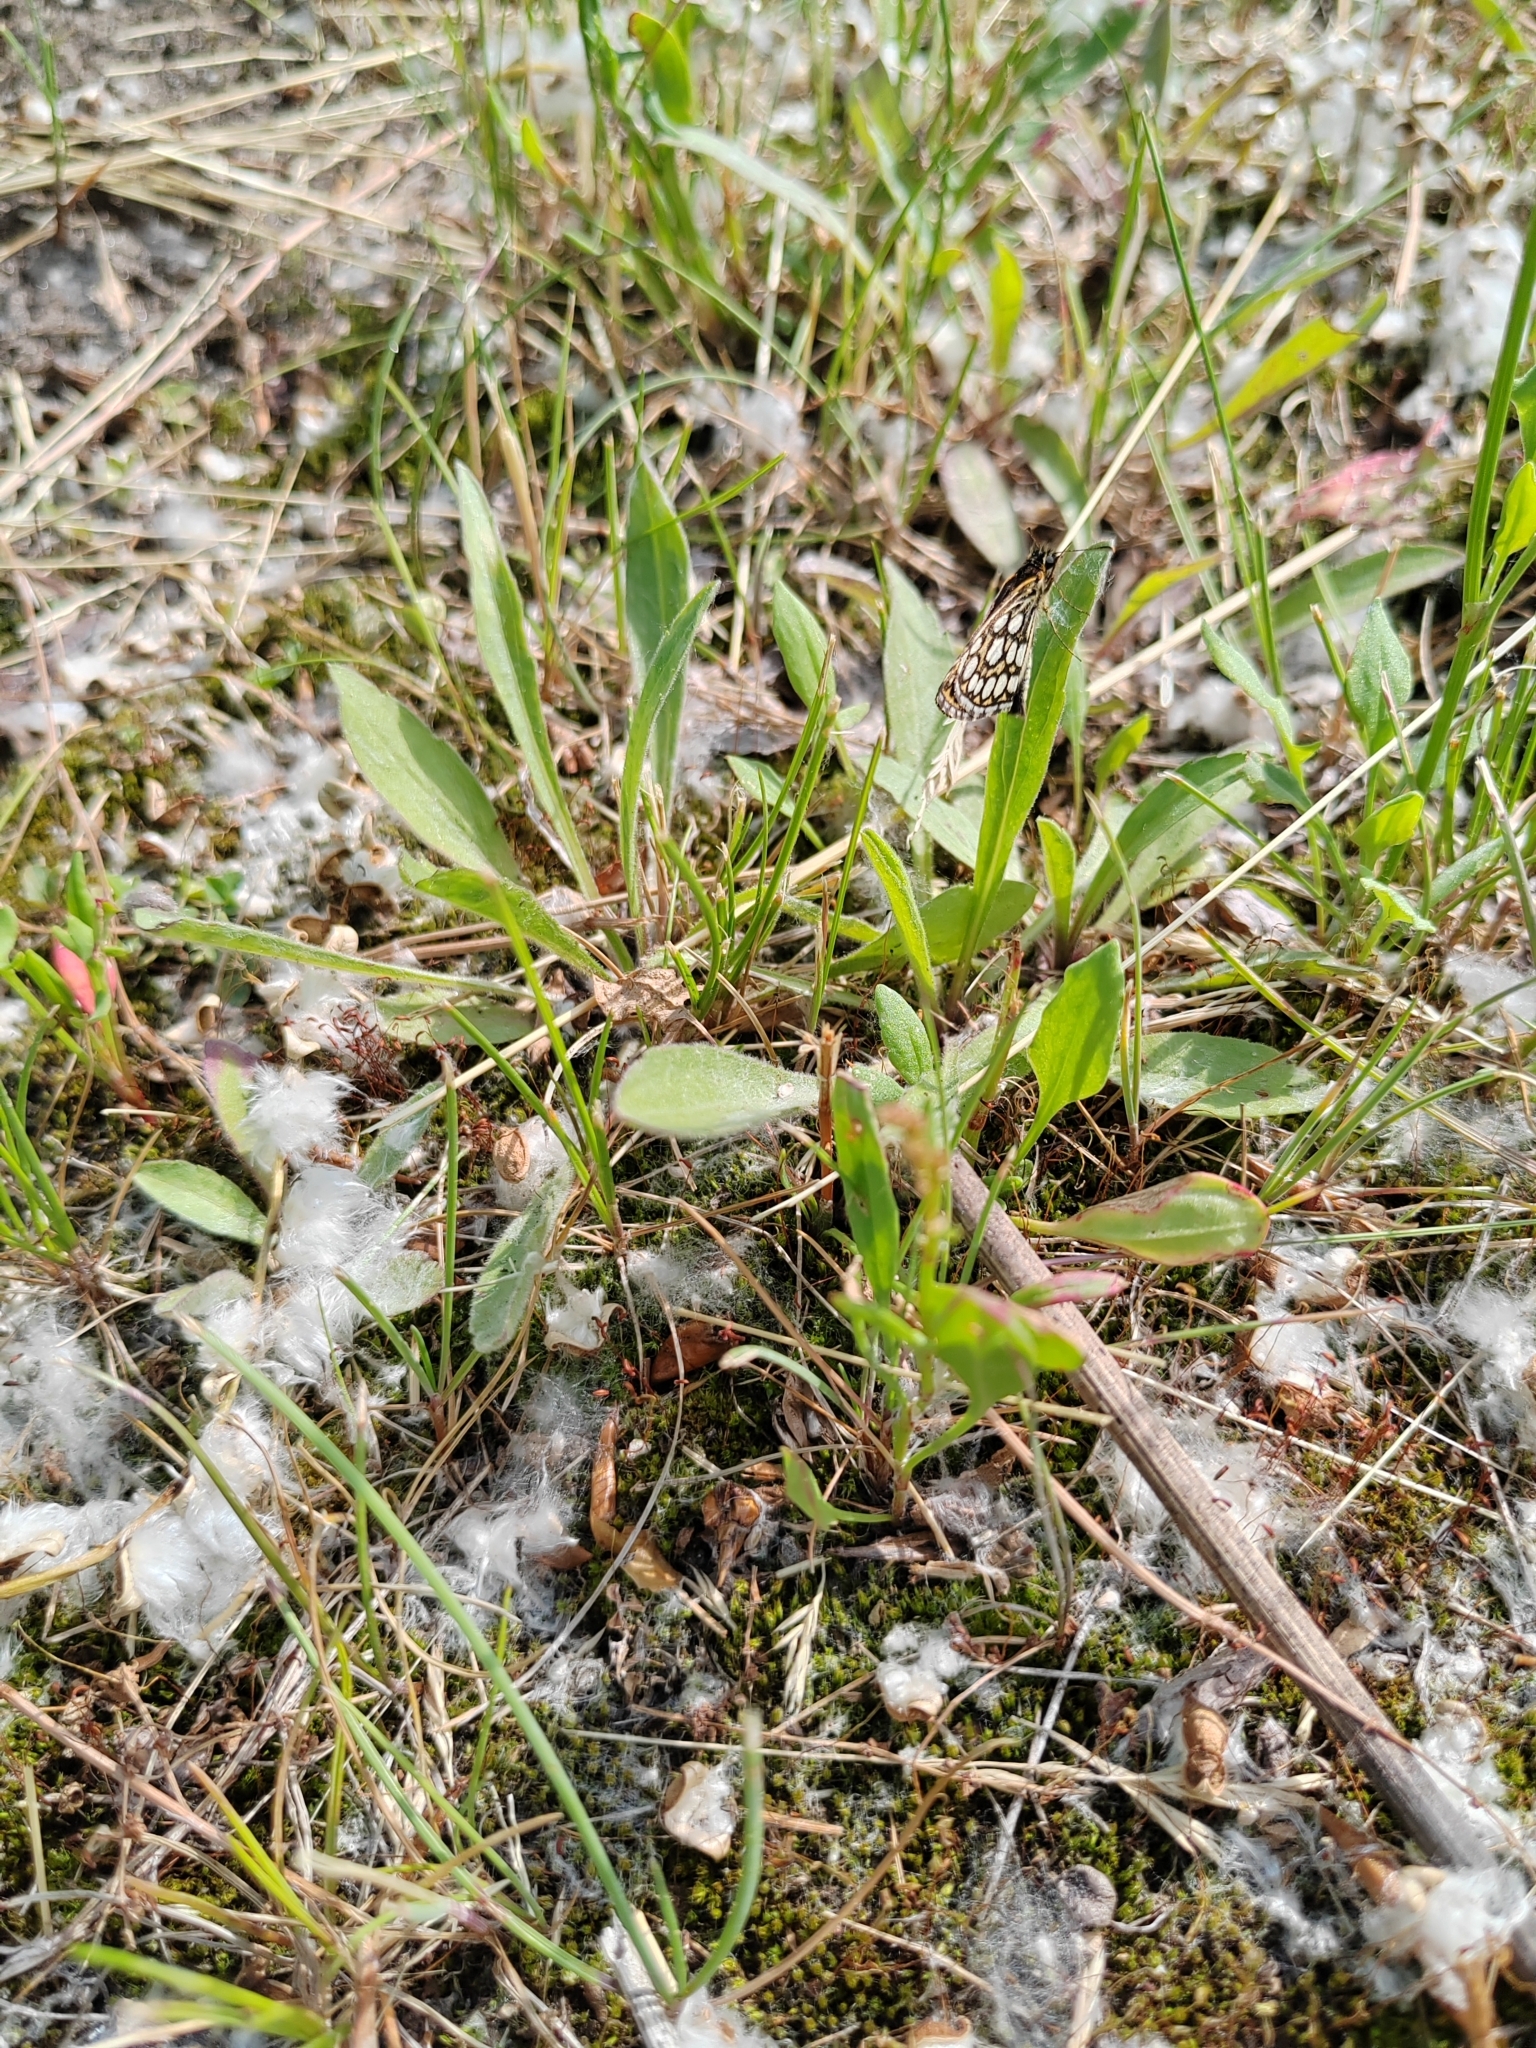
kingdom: Animalia
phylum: Arthropoda
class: Insecta
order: Lepidoptera
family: Hesperiidae
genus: Heteropterus
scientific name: Heteropterus morpheus
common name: Large chequered skipper
